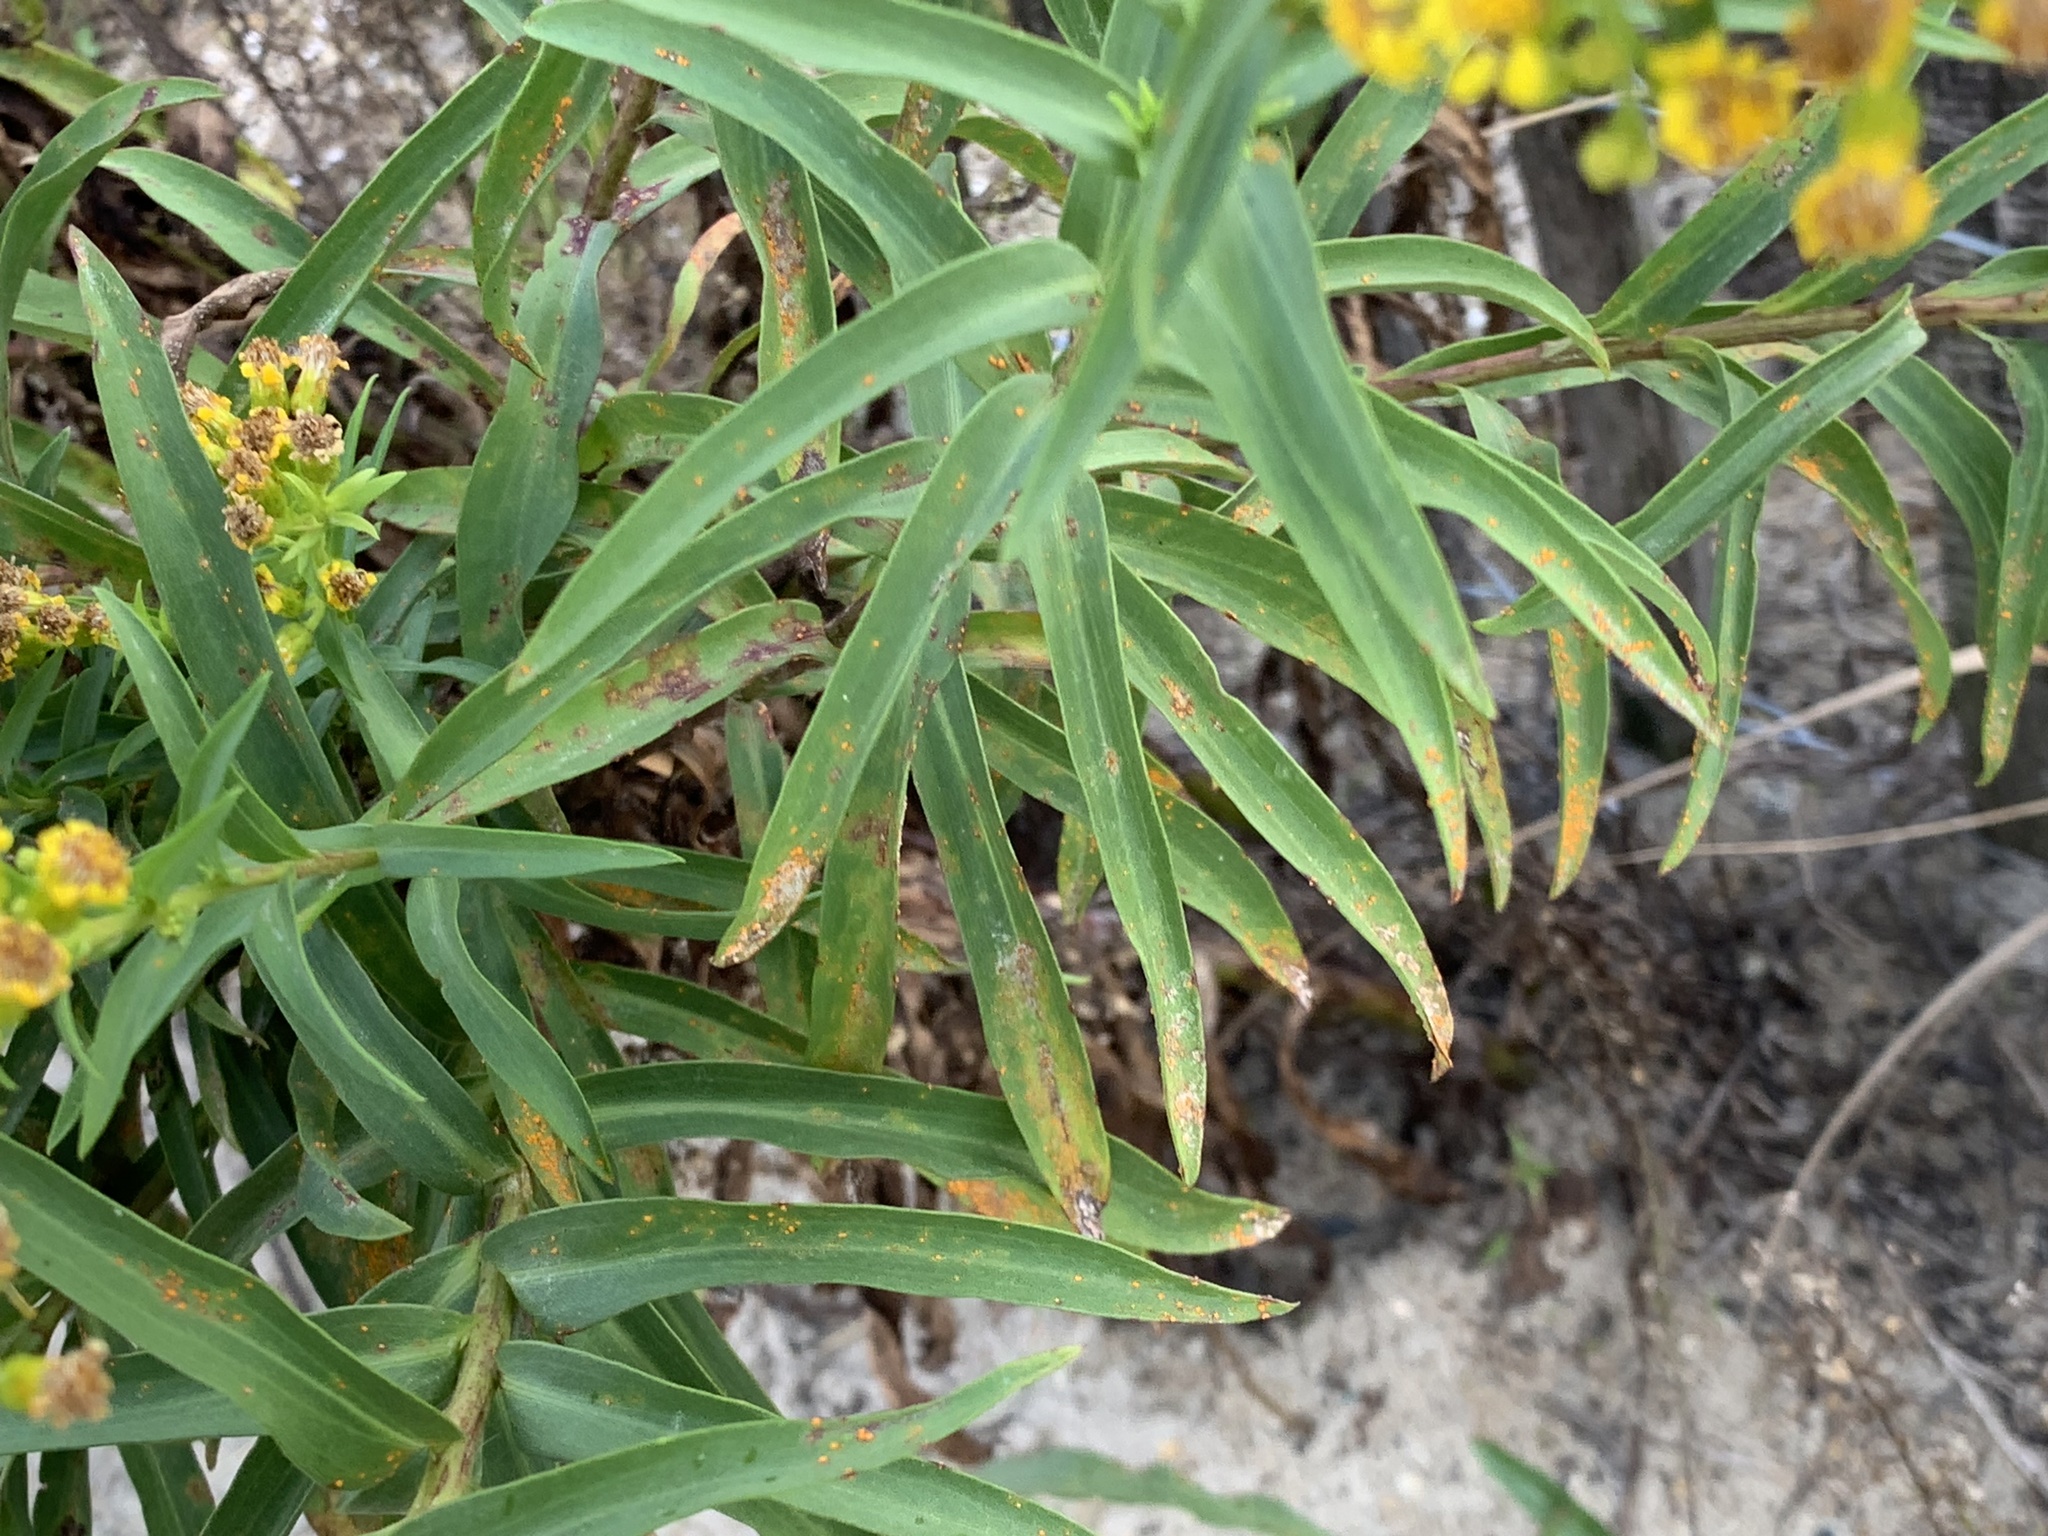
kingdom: Fungi
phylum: Basidiomycota
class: Pucciniomycetes
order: Pucciniales
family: Coleosporiaceae
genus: Coleosporium
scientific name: Coleosporium asterum
